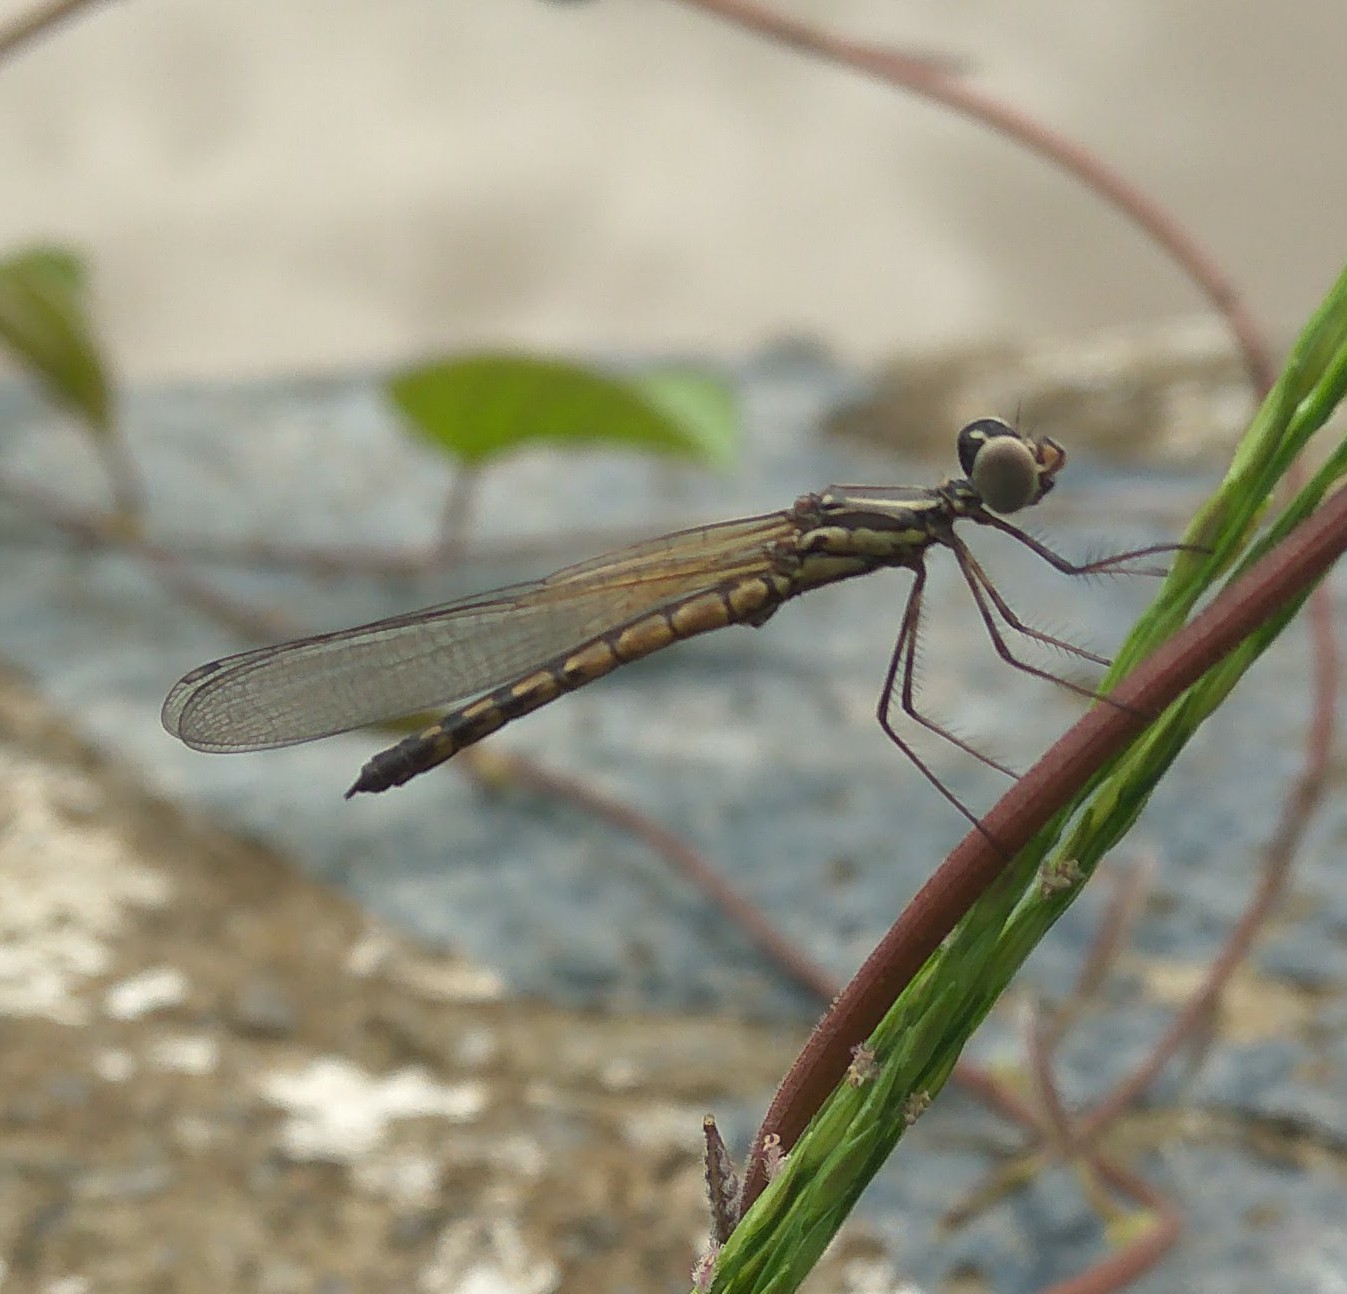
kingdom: Animalia
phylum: Arthropoda
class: Insecta
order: Odonata
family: Chlorocyphidae
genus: Libellago
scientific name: Libellago indica
